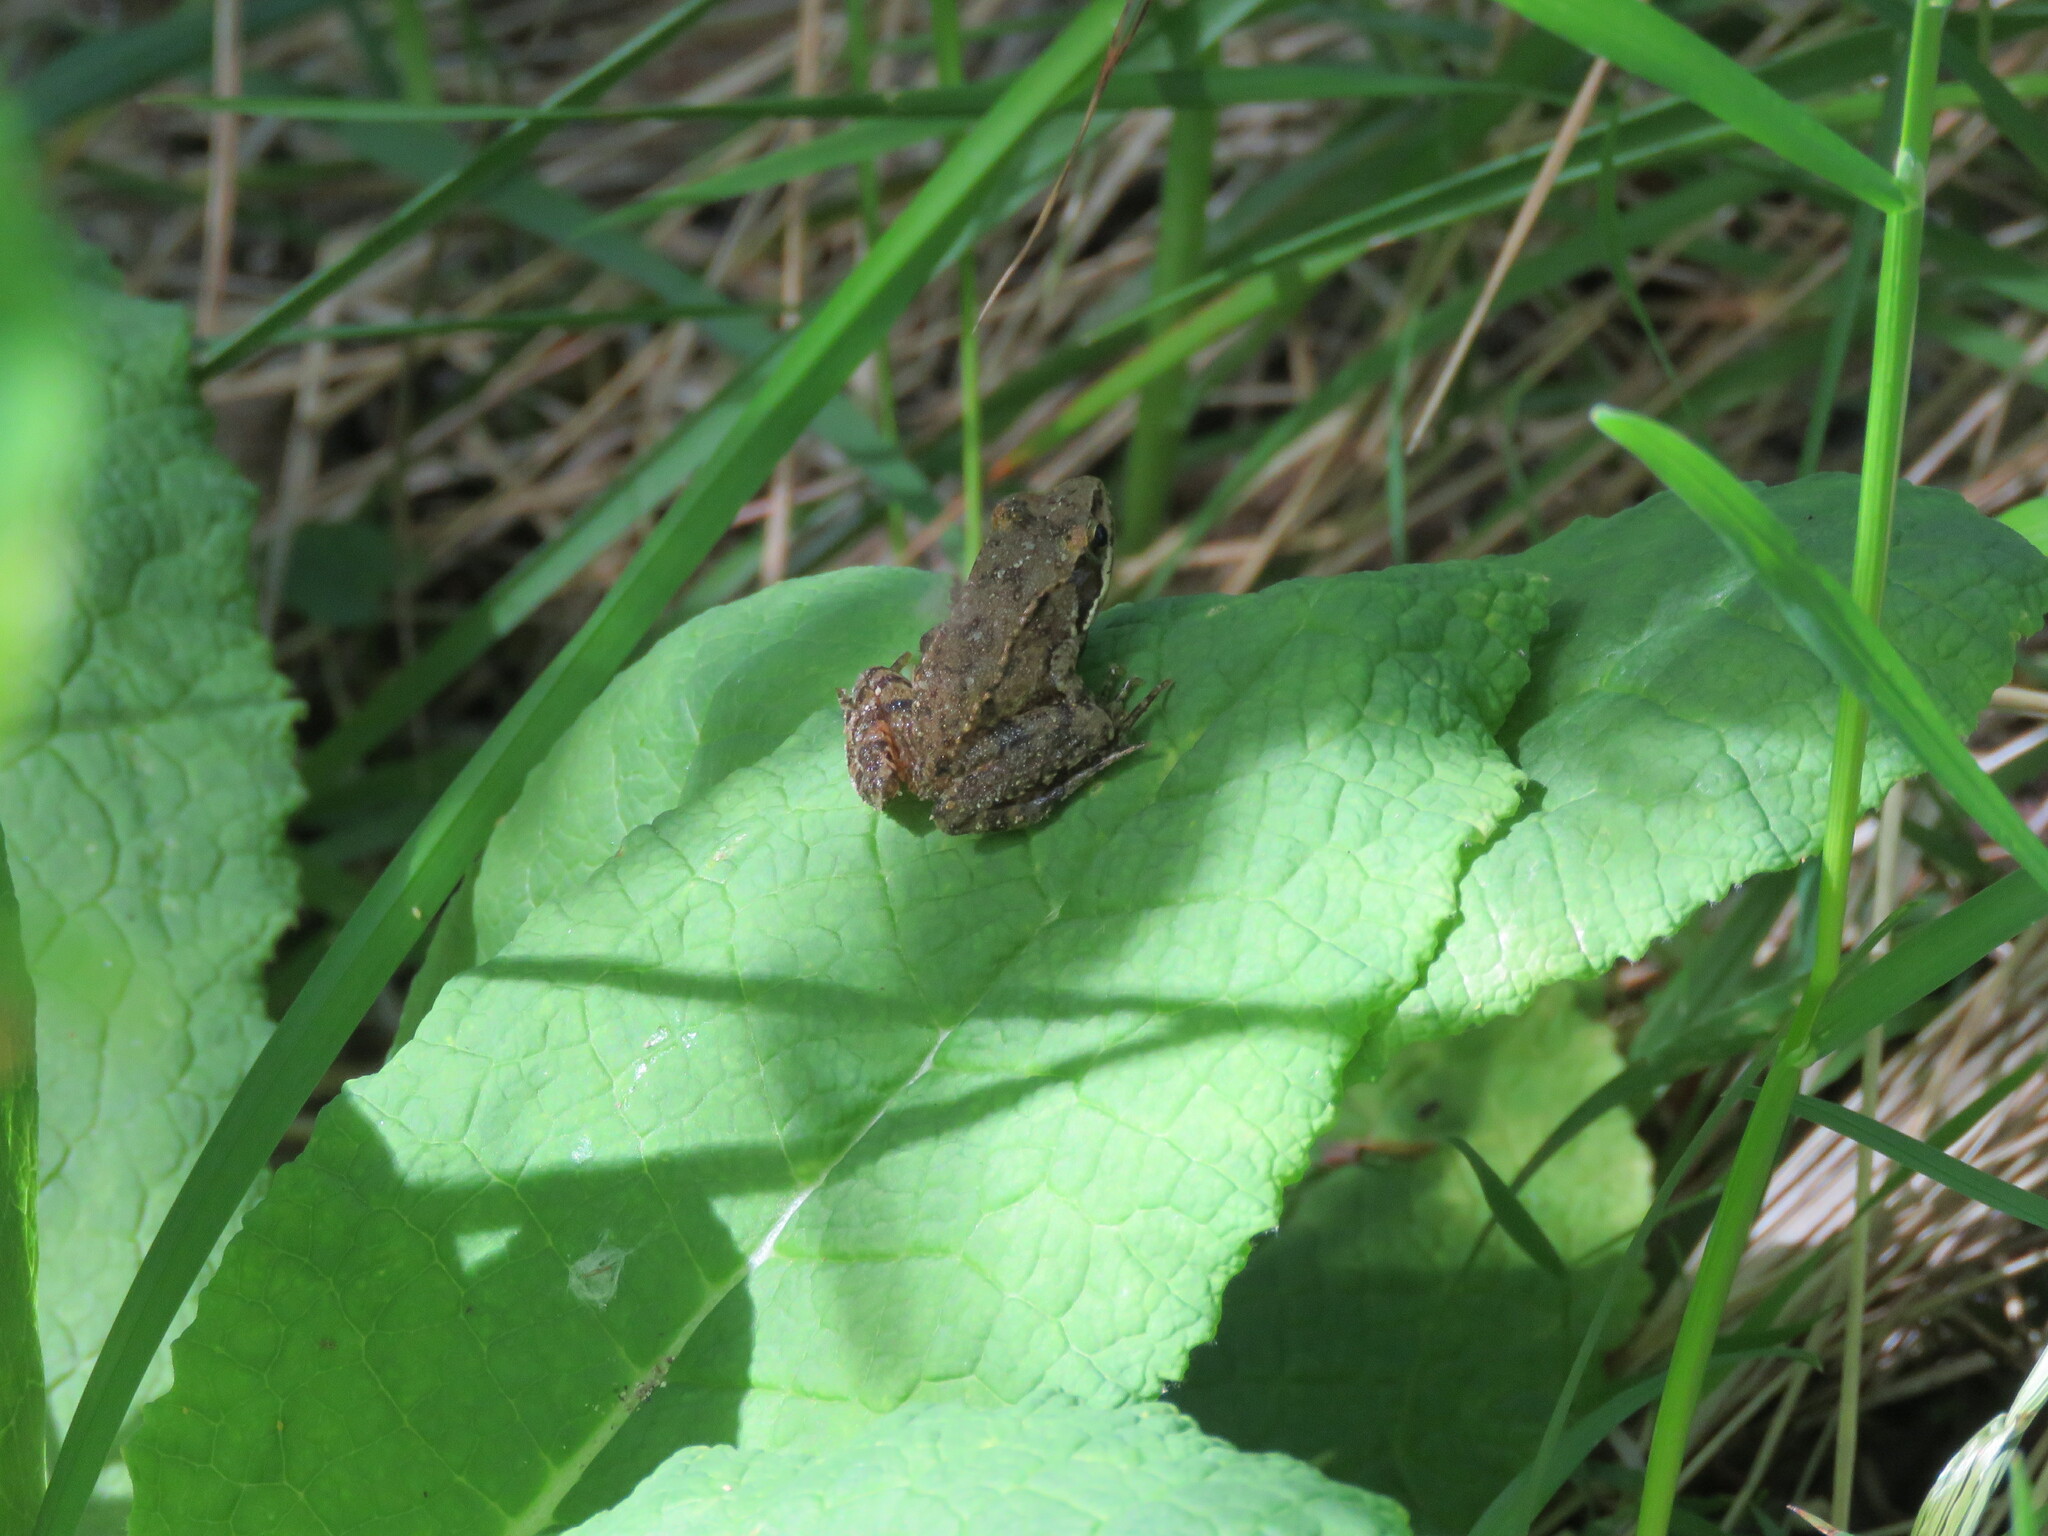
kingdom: Animalia
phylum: Chordata
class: Amphibia
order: Anura
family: Ranidae
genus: Rana
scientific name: Rana iberica
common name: Iberian frog
